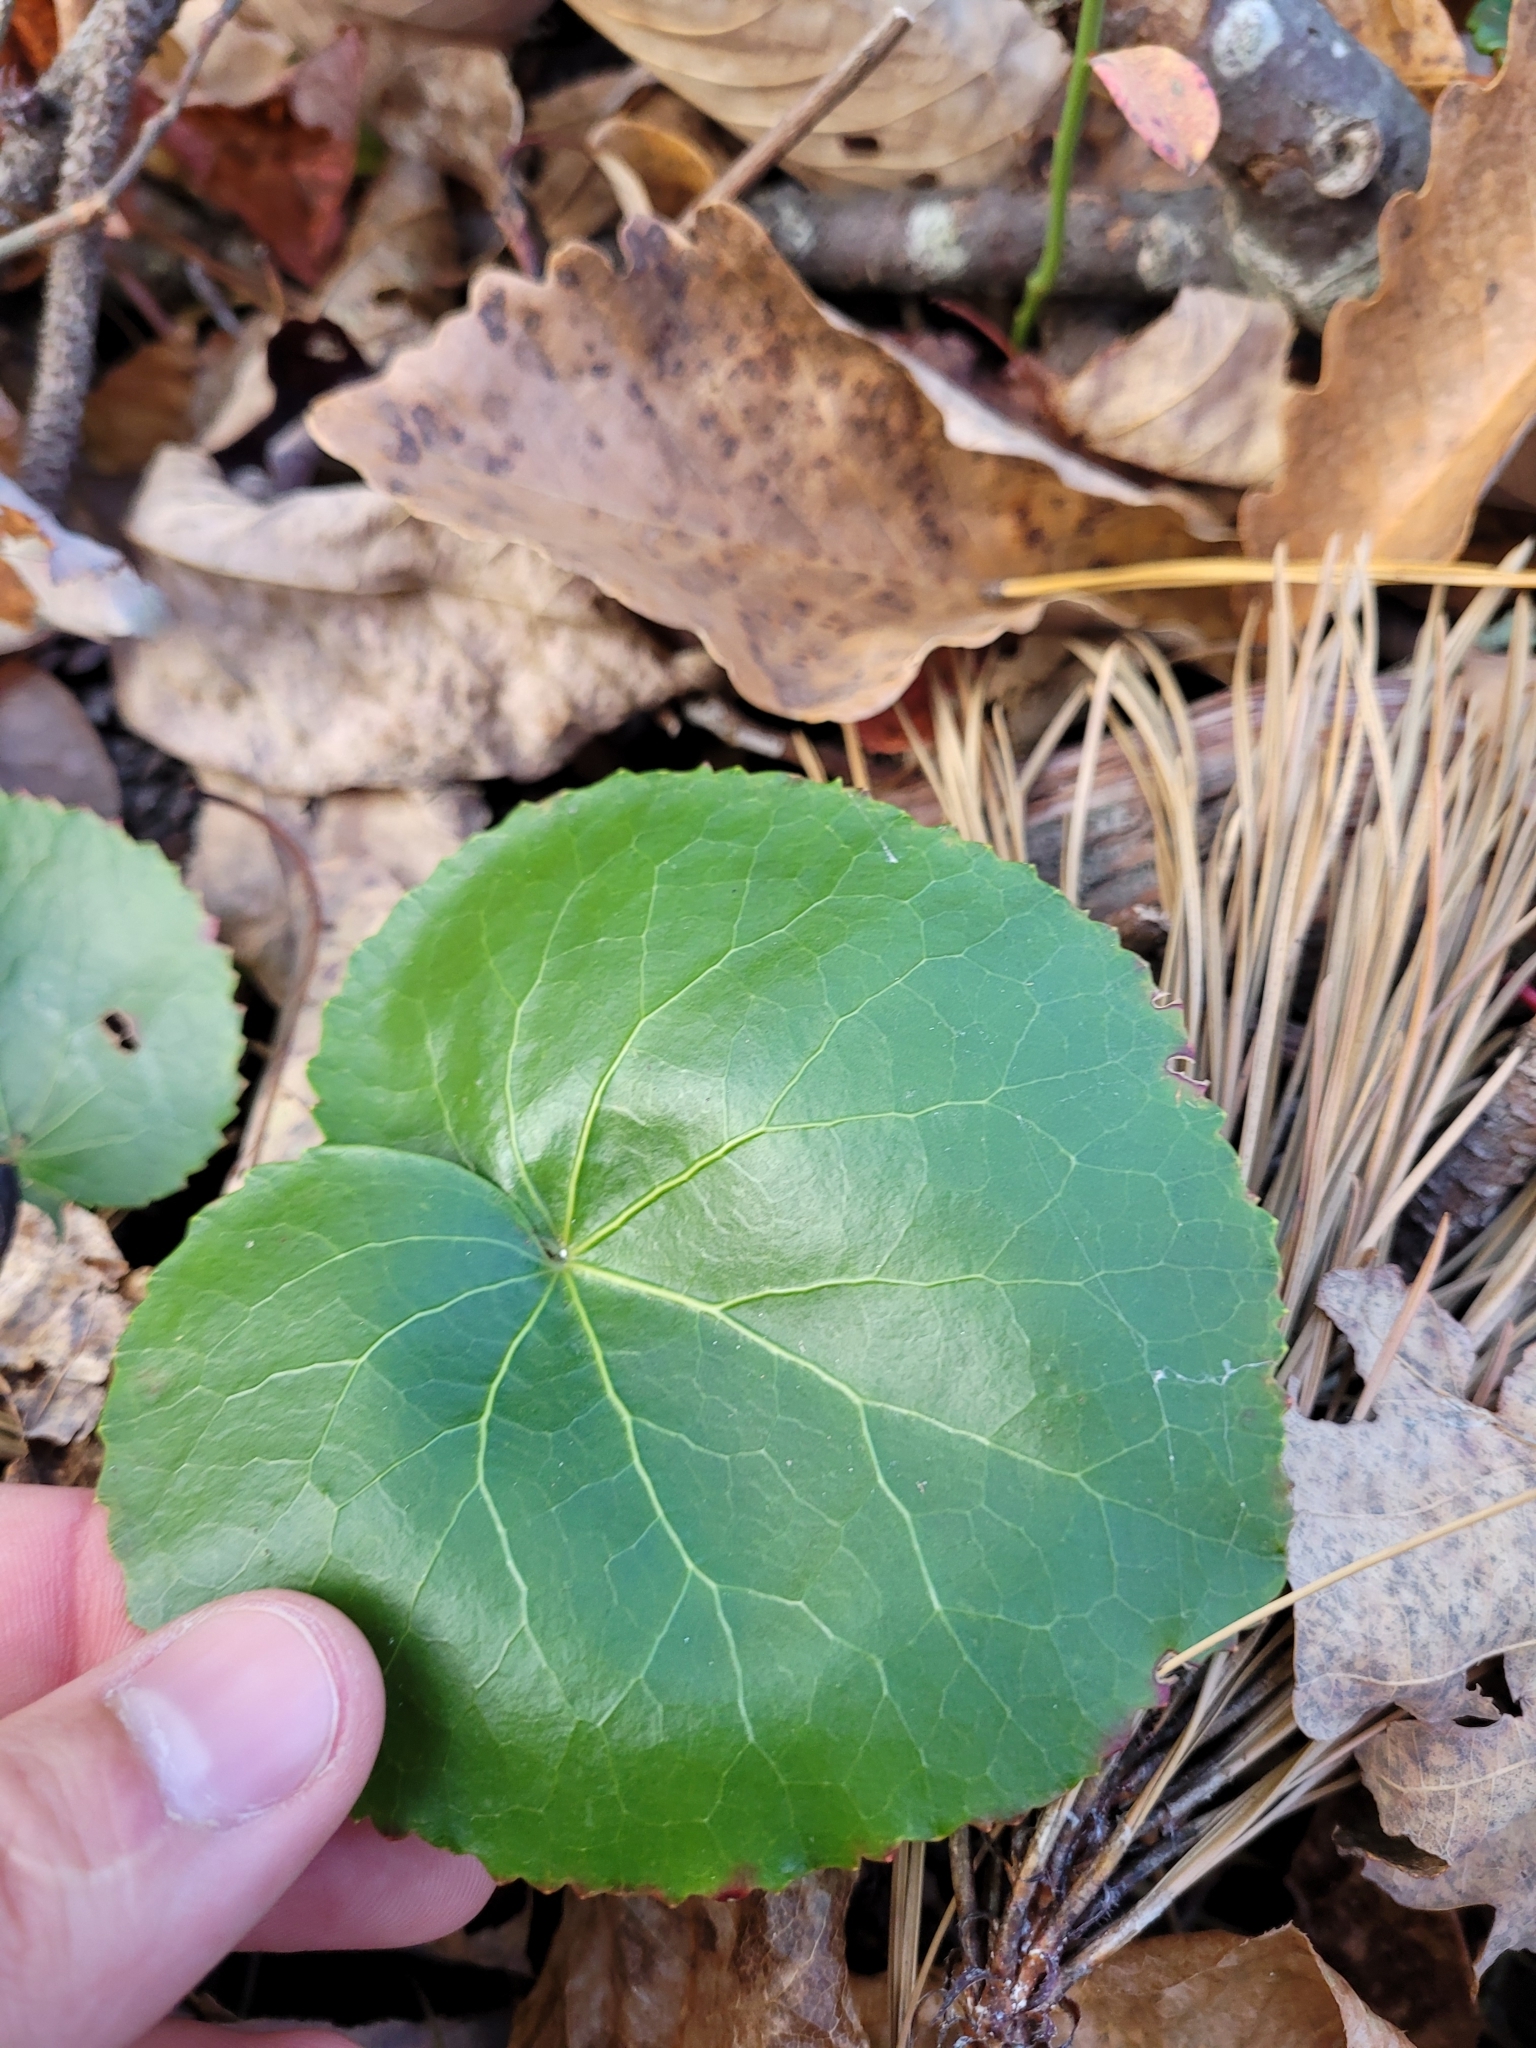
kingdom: Plantae
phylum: Tracheophyta
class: Magnoliopsida
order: Ericales
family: Diapensiaceae
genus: Galax
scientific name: Galax urceolata
